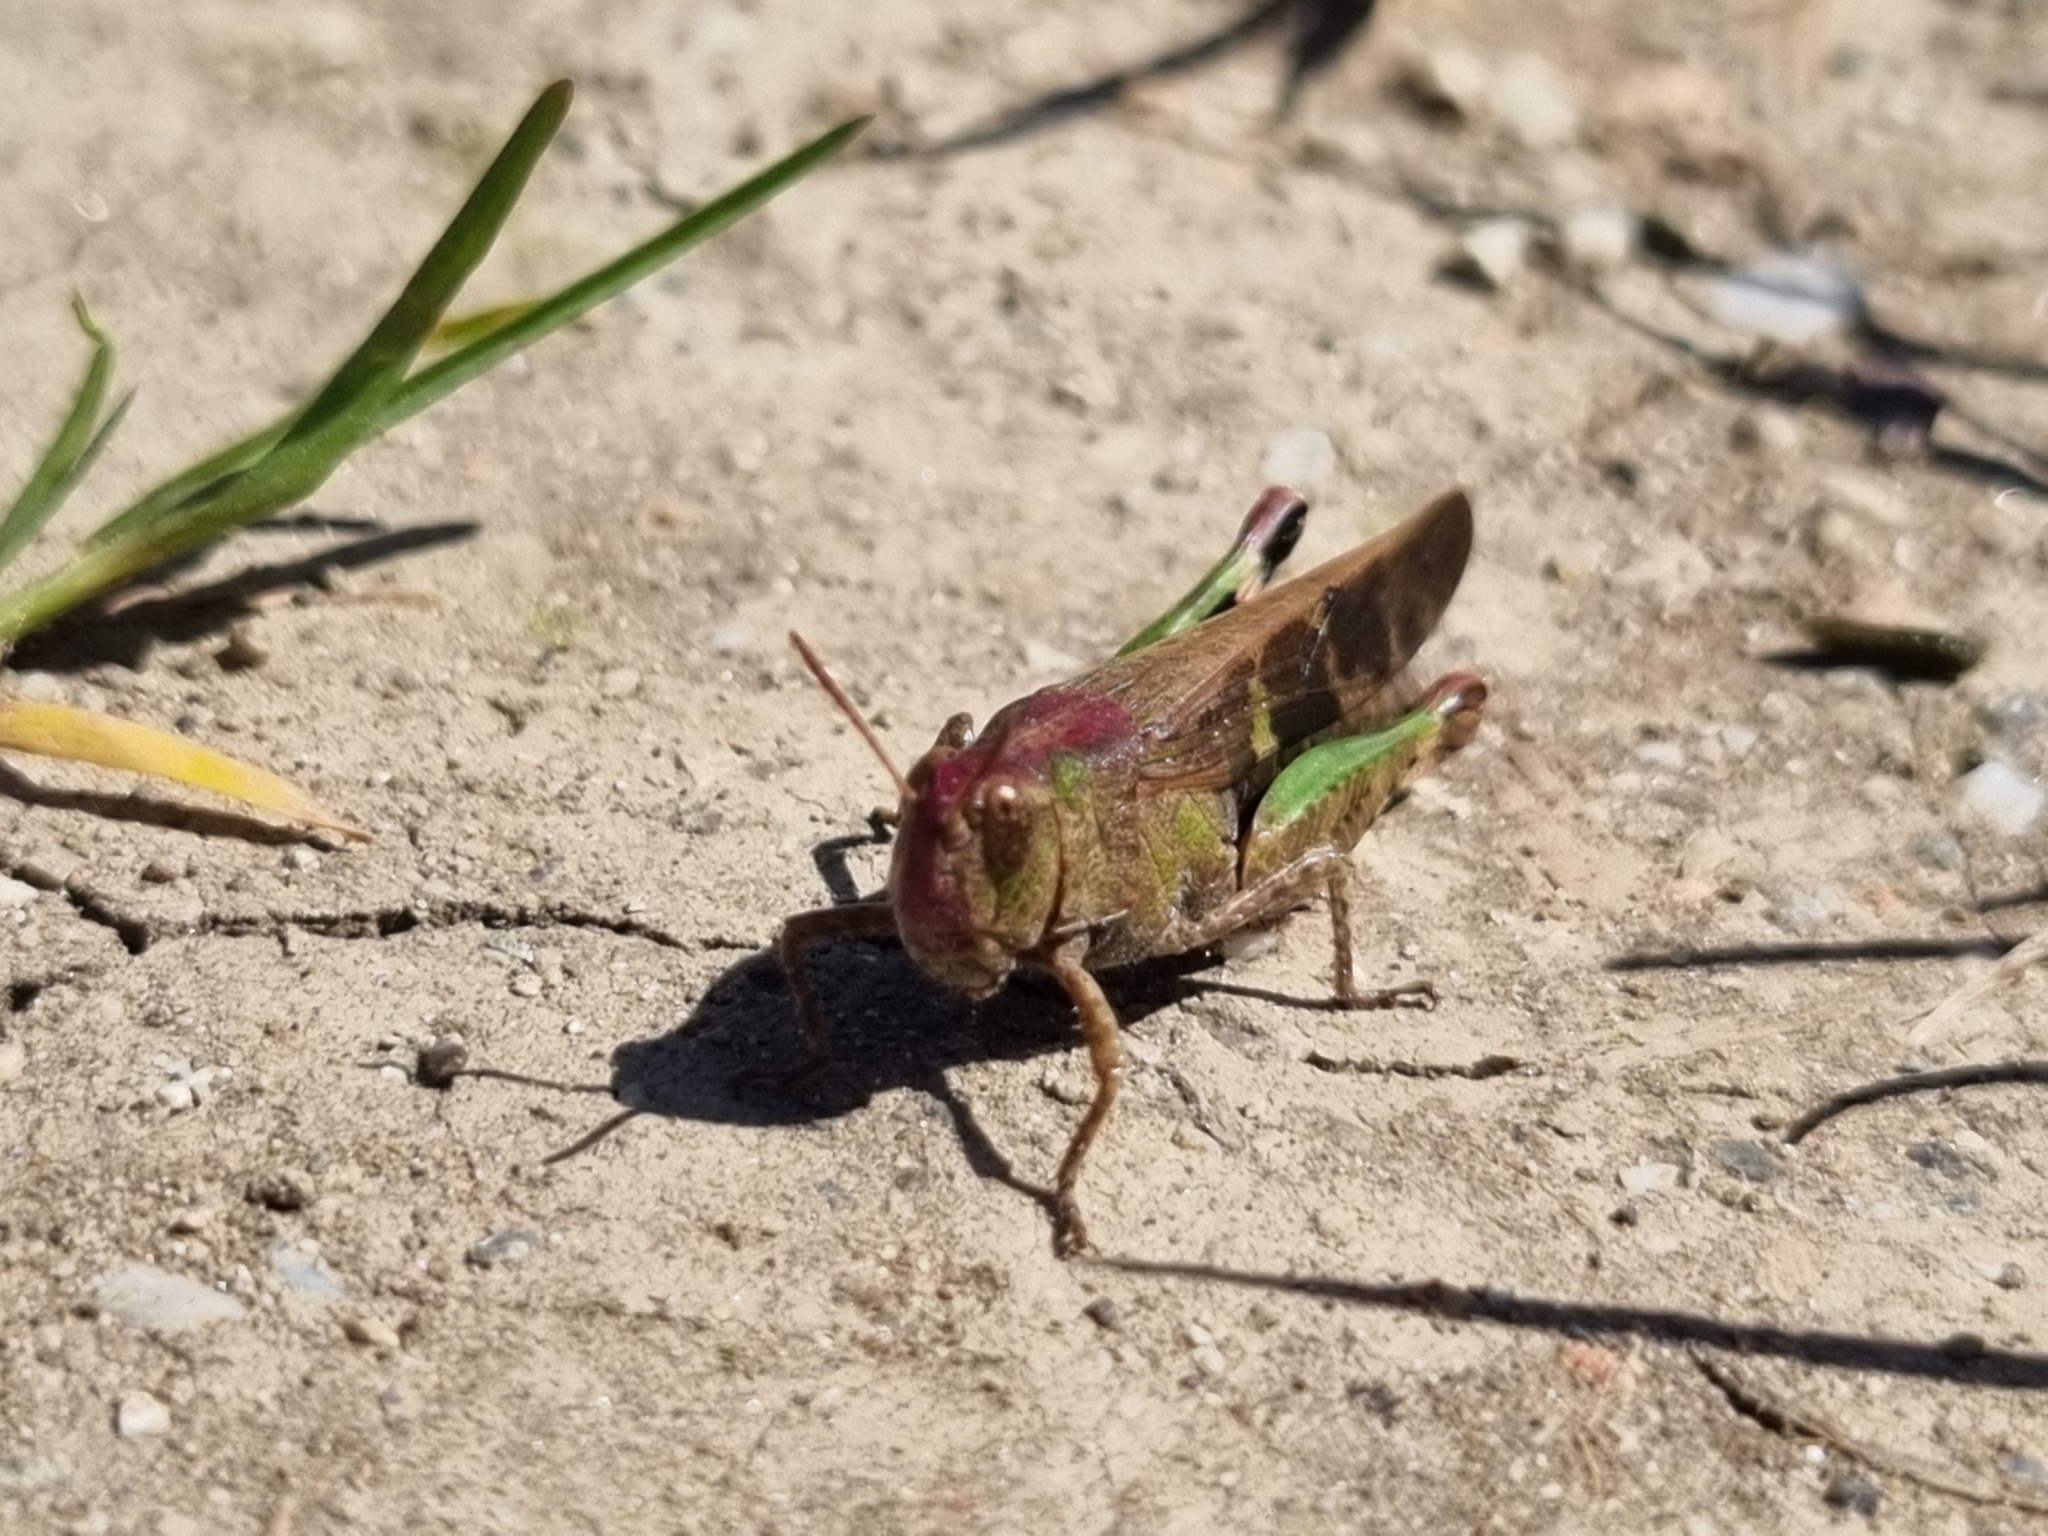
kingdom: Animalia
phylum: Arthropoda
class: Insecta
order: Orthoptera
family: Acrididae
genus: Aiolopus
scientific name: Aiolopus strepens
